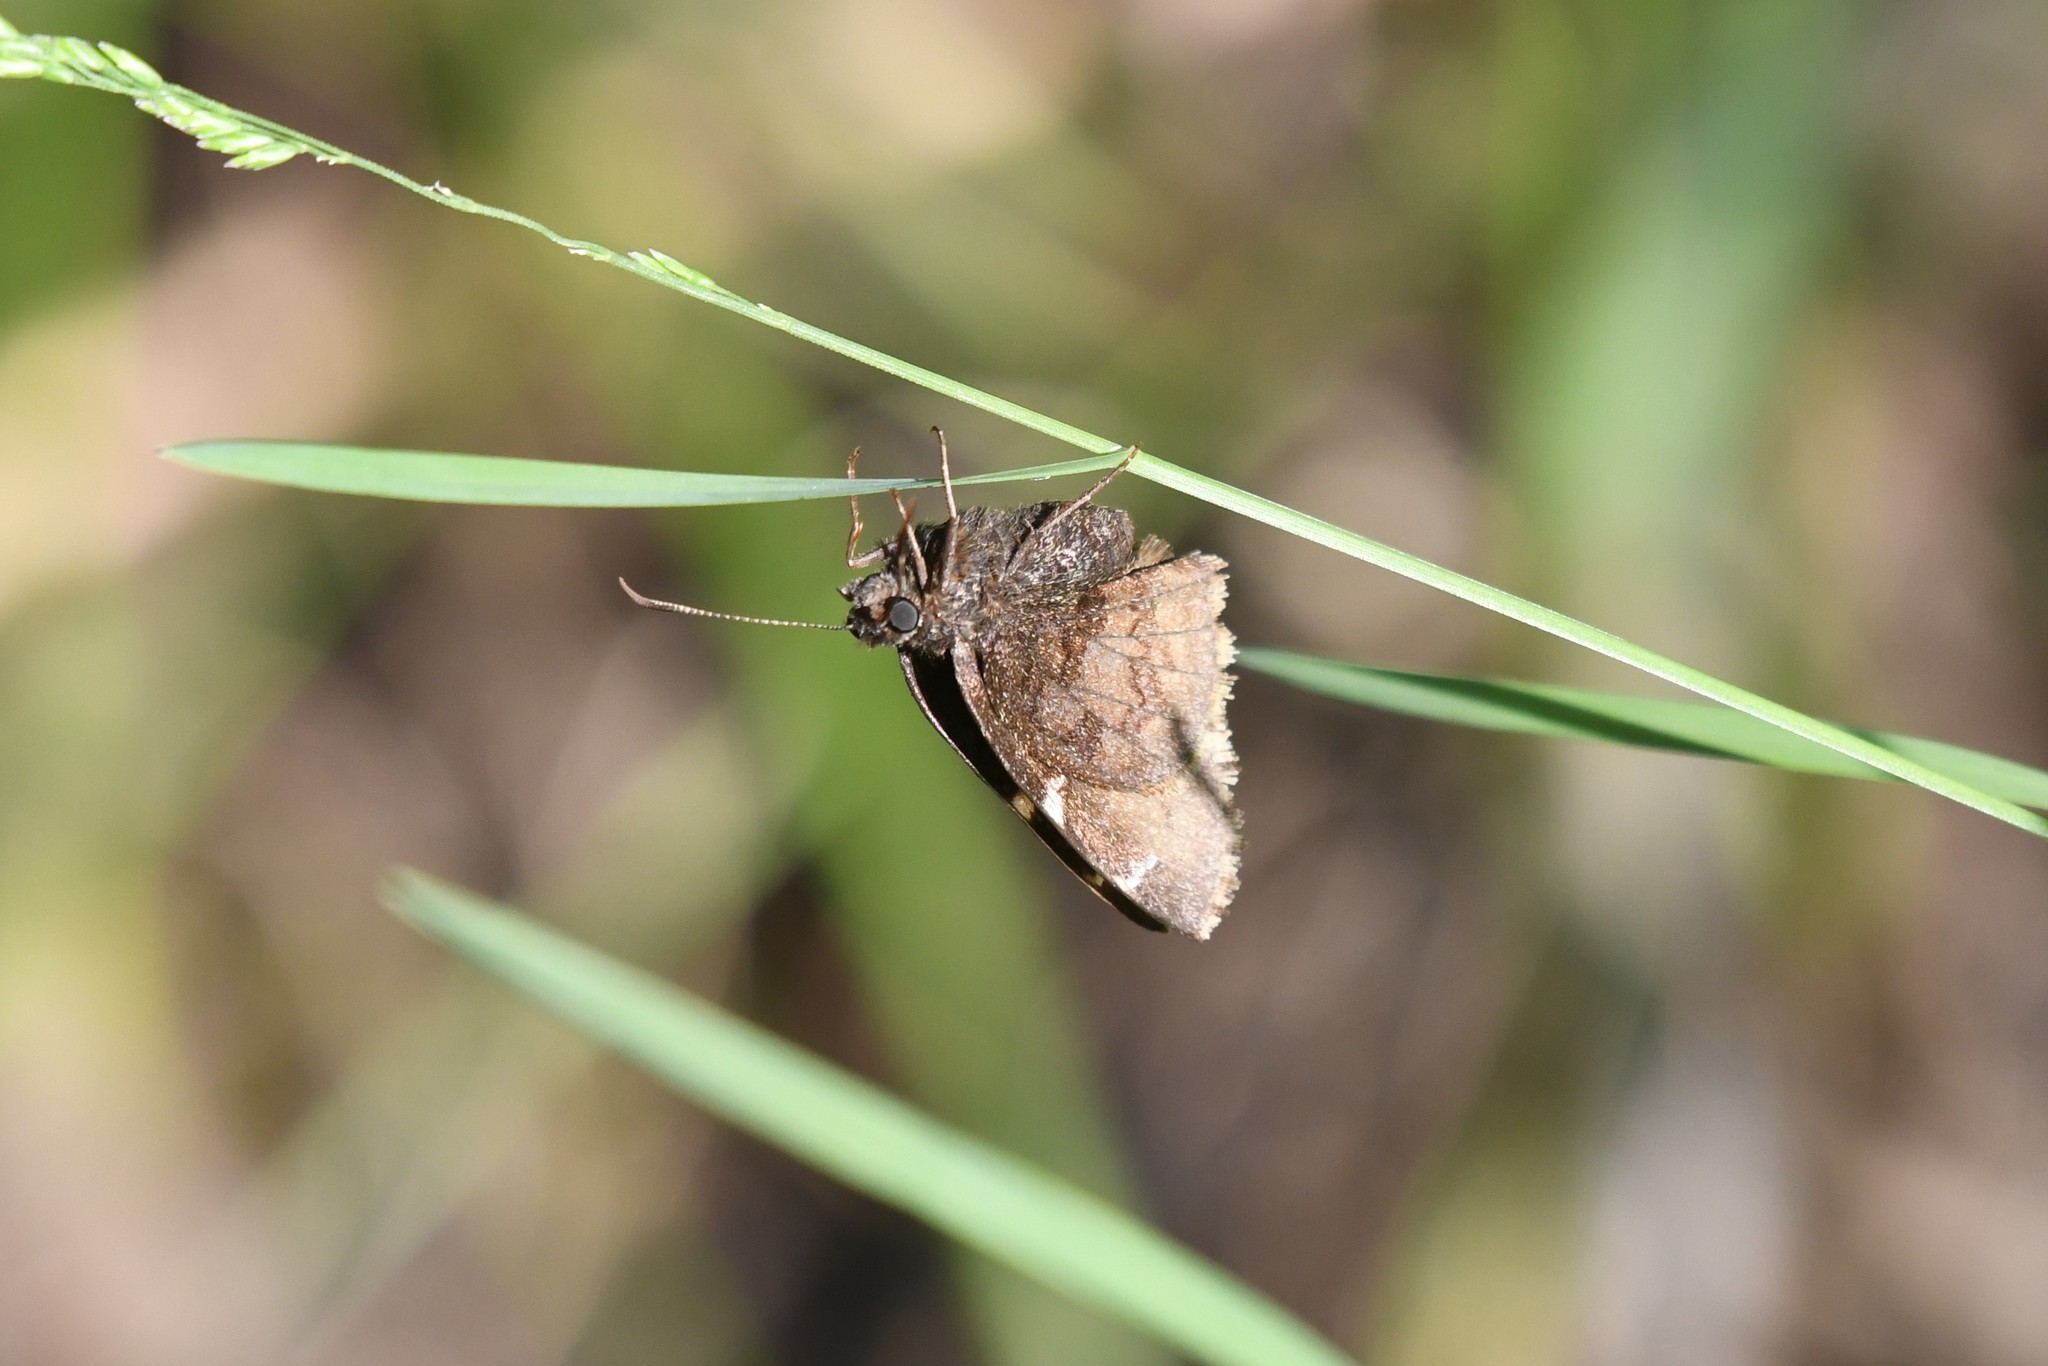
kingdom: Animalia
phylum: Arthropoda
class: Insecta
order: Lepidoptera
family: Hesperiidae
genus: Thorybes
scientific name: Thorybes pylades
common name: Northern cloudywing
